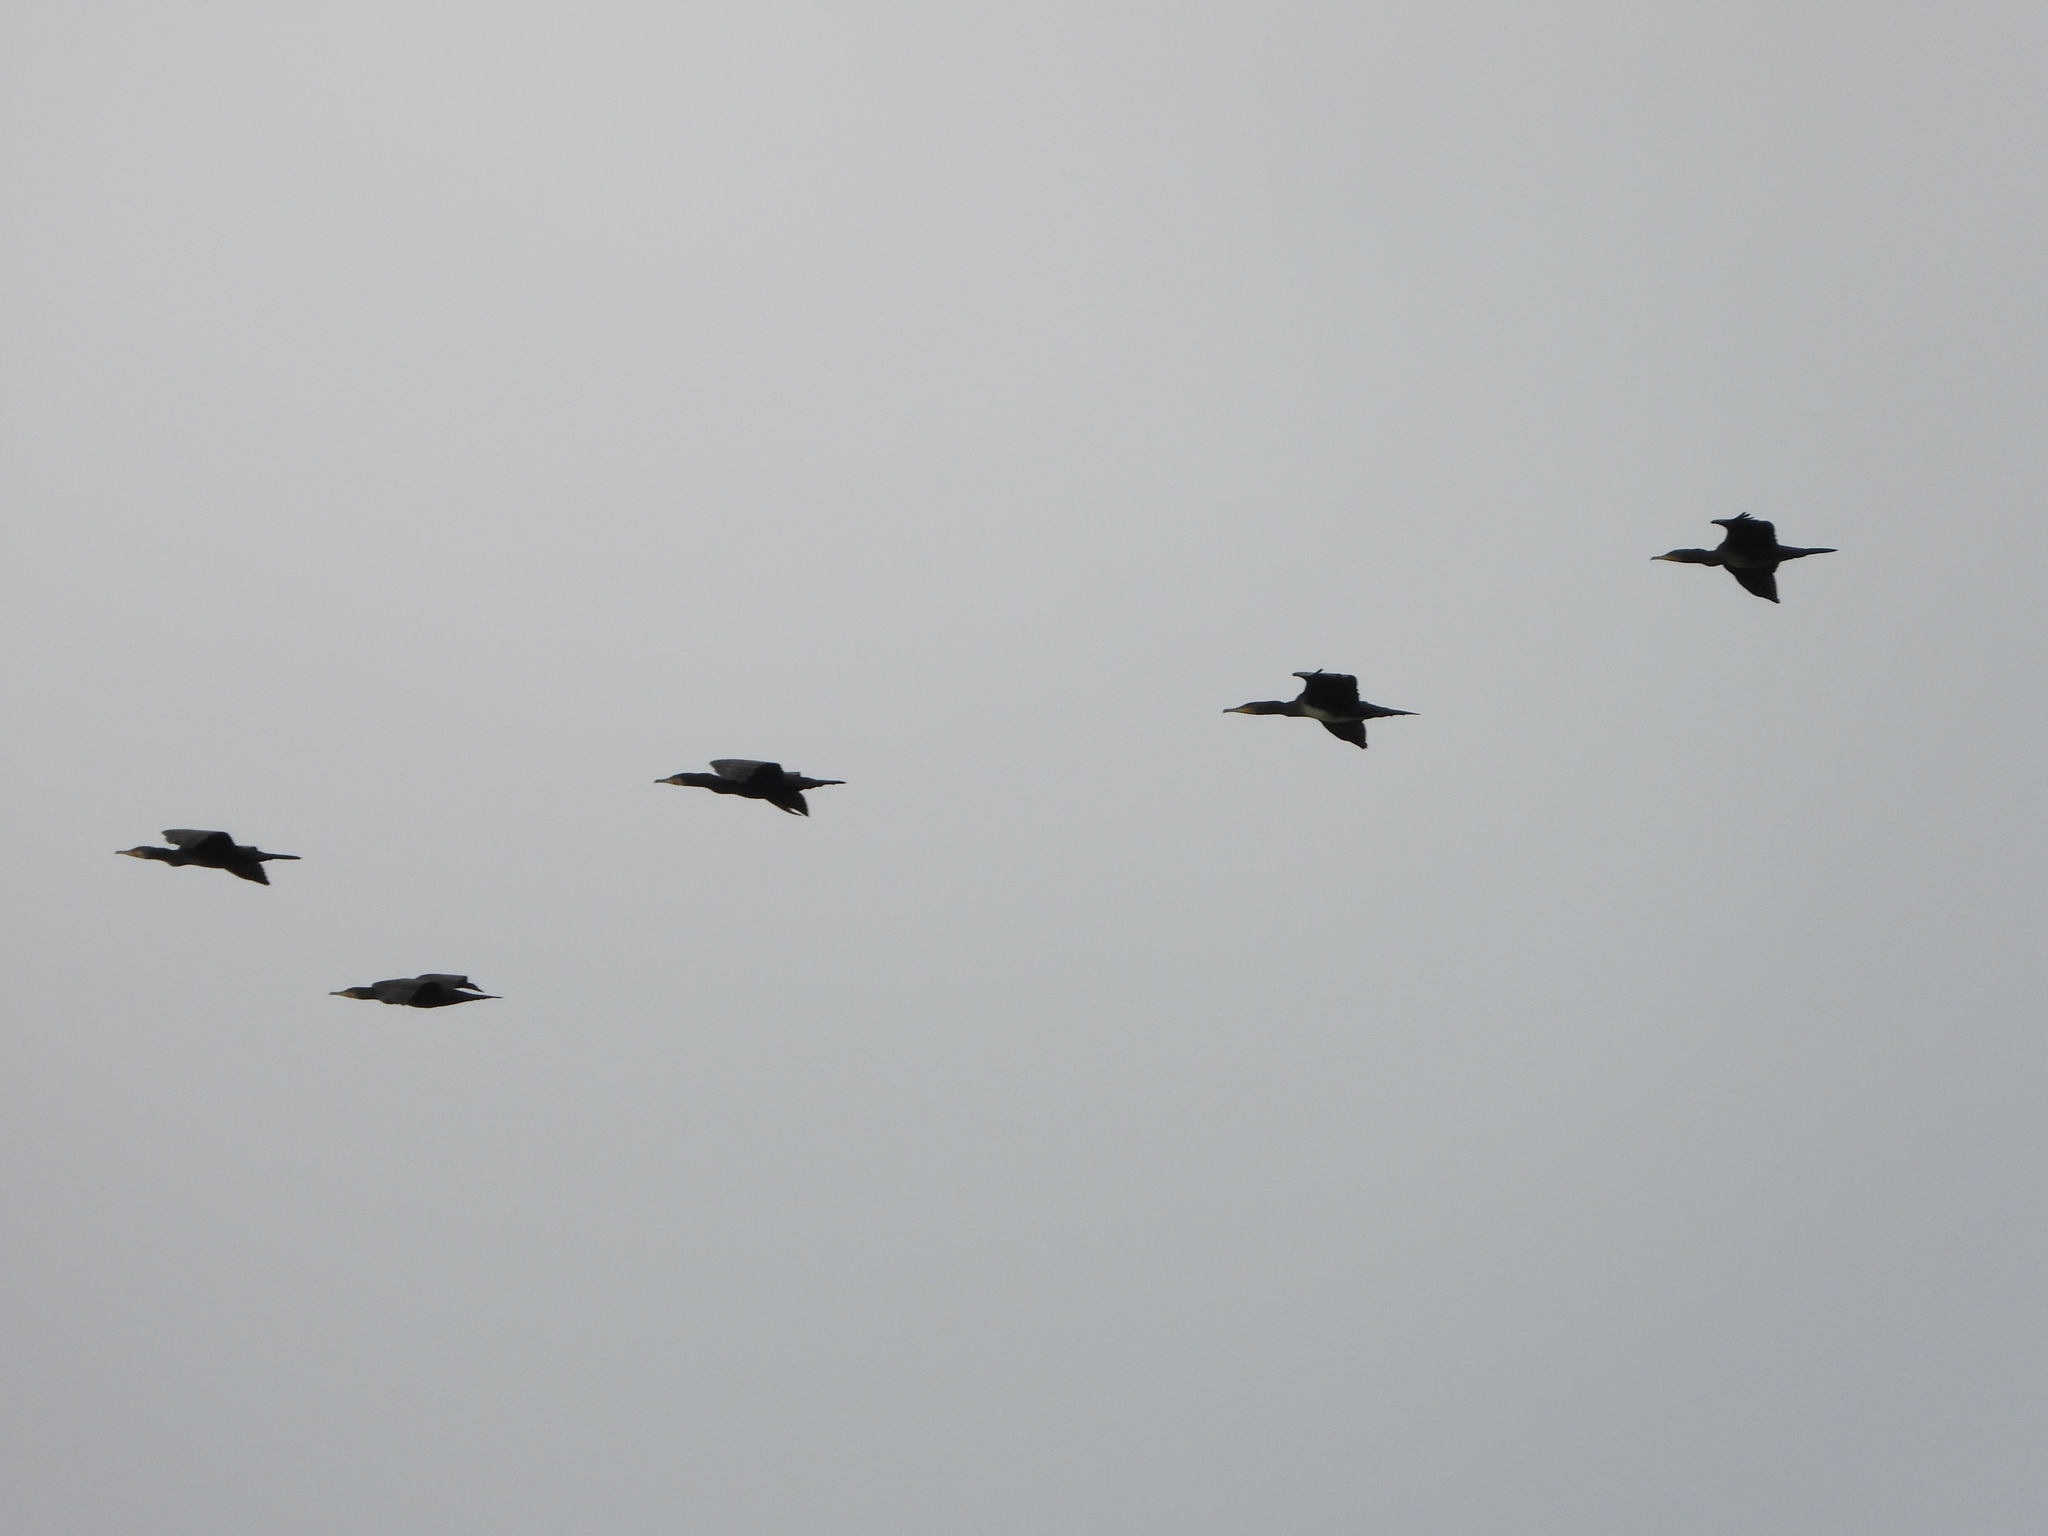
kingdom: Animalia
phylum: Chordata
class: Aves
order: Suliformes
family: Phalacrocoracidae
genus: Phalacrocorax
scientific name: Phalacrocorax carbo
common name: Great cormorant
